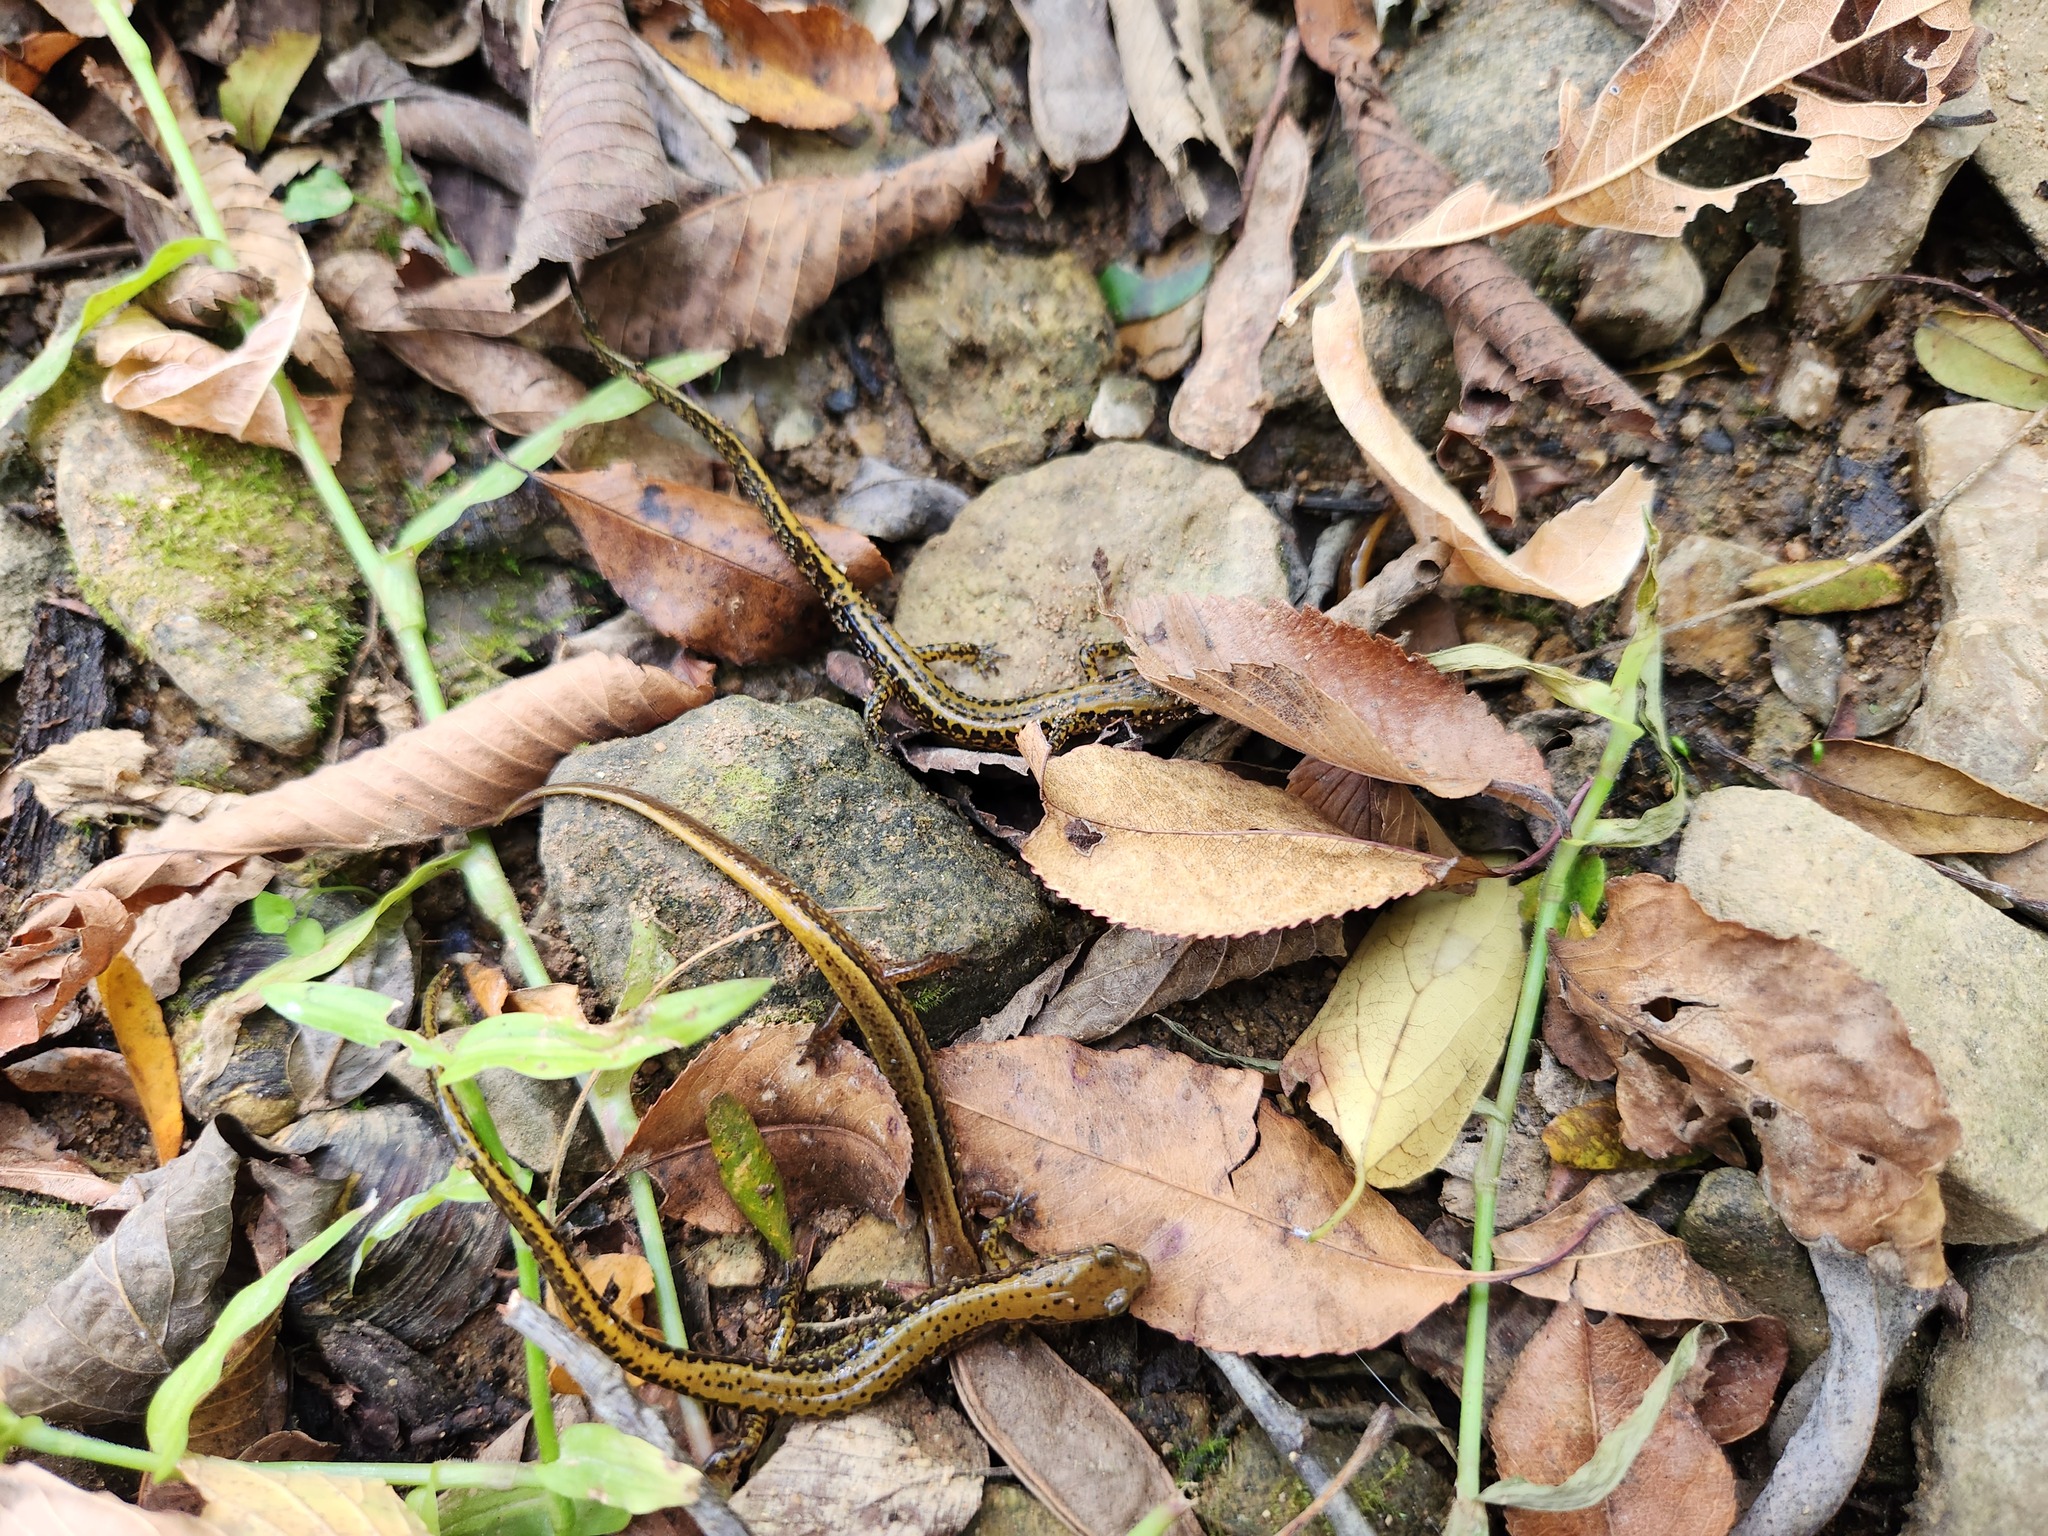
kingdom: Animalia
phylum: Chordata
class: Amphibia
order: Caudata
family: Plethodontidae
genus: Eurycea
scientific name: Eurycea longicauda
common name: Long-tailed salamander
